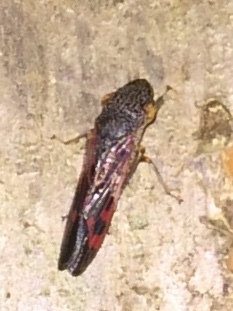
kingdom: Animalia
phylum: Arthropoda
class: Insecta
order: Hemiptera
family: Cicadellidae
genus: Homalodisca
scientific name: Homalodisca vitripennis
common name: Glassy-winged sharpshooter
